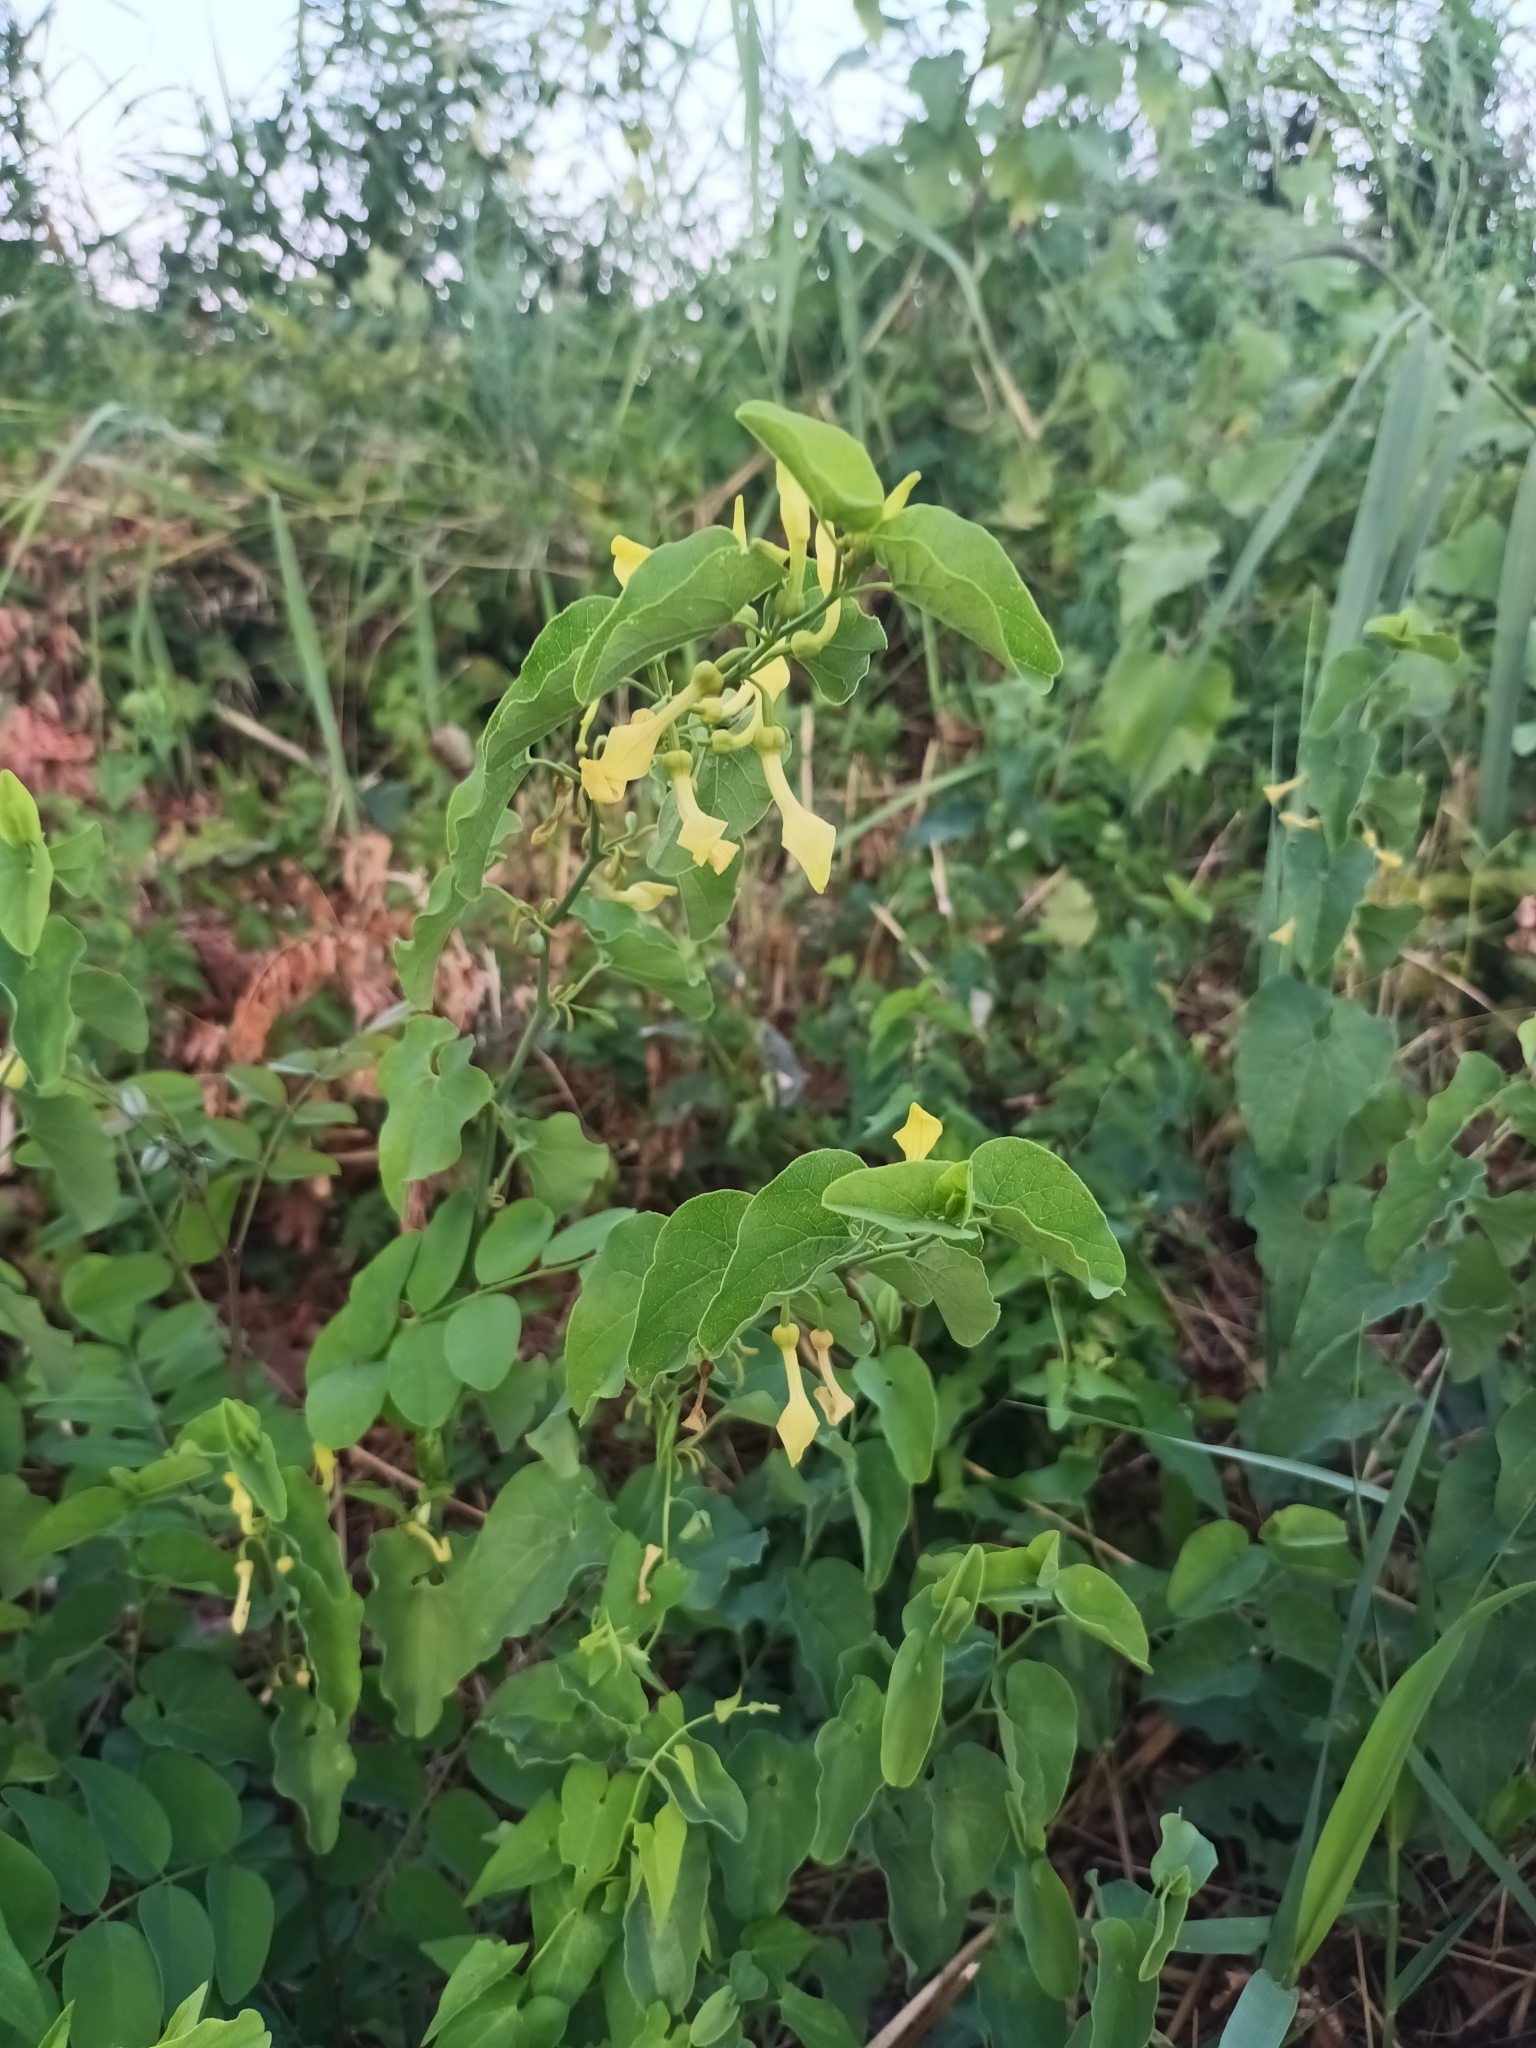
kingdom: Plantae
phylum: Tracheophyta
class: Magnoliopsida
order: Piperales
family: Aristolochiaceae
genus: Aristolochia
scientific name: Aristolochia clematitis
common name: Birthwort
